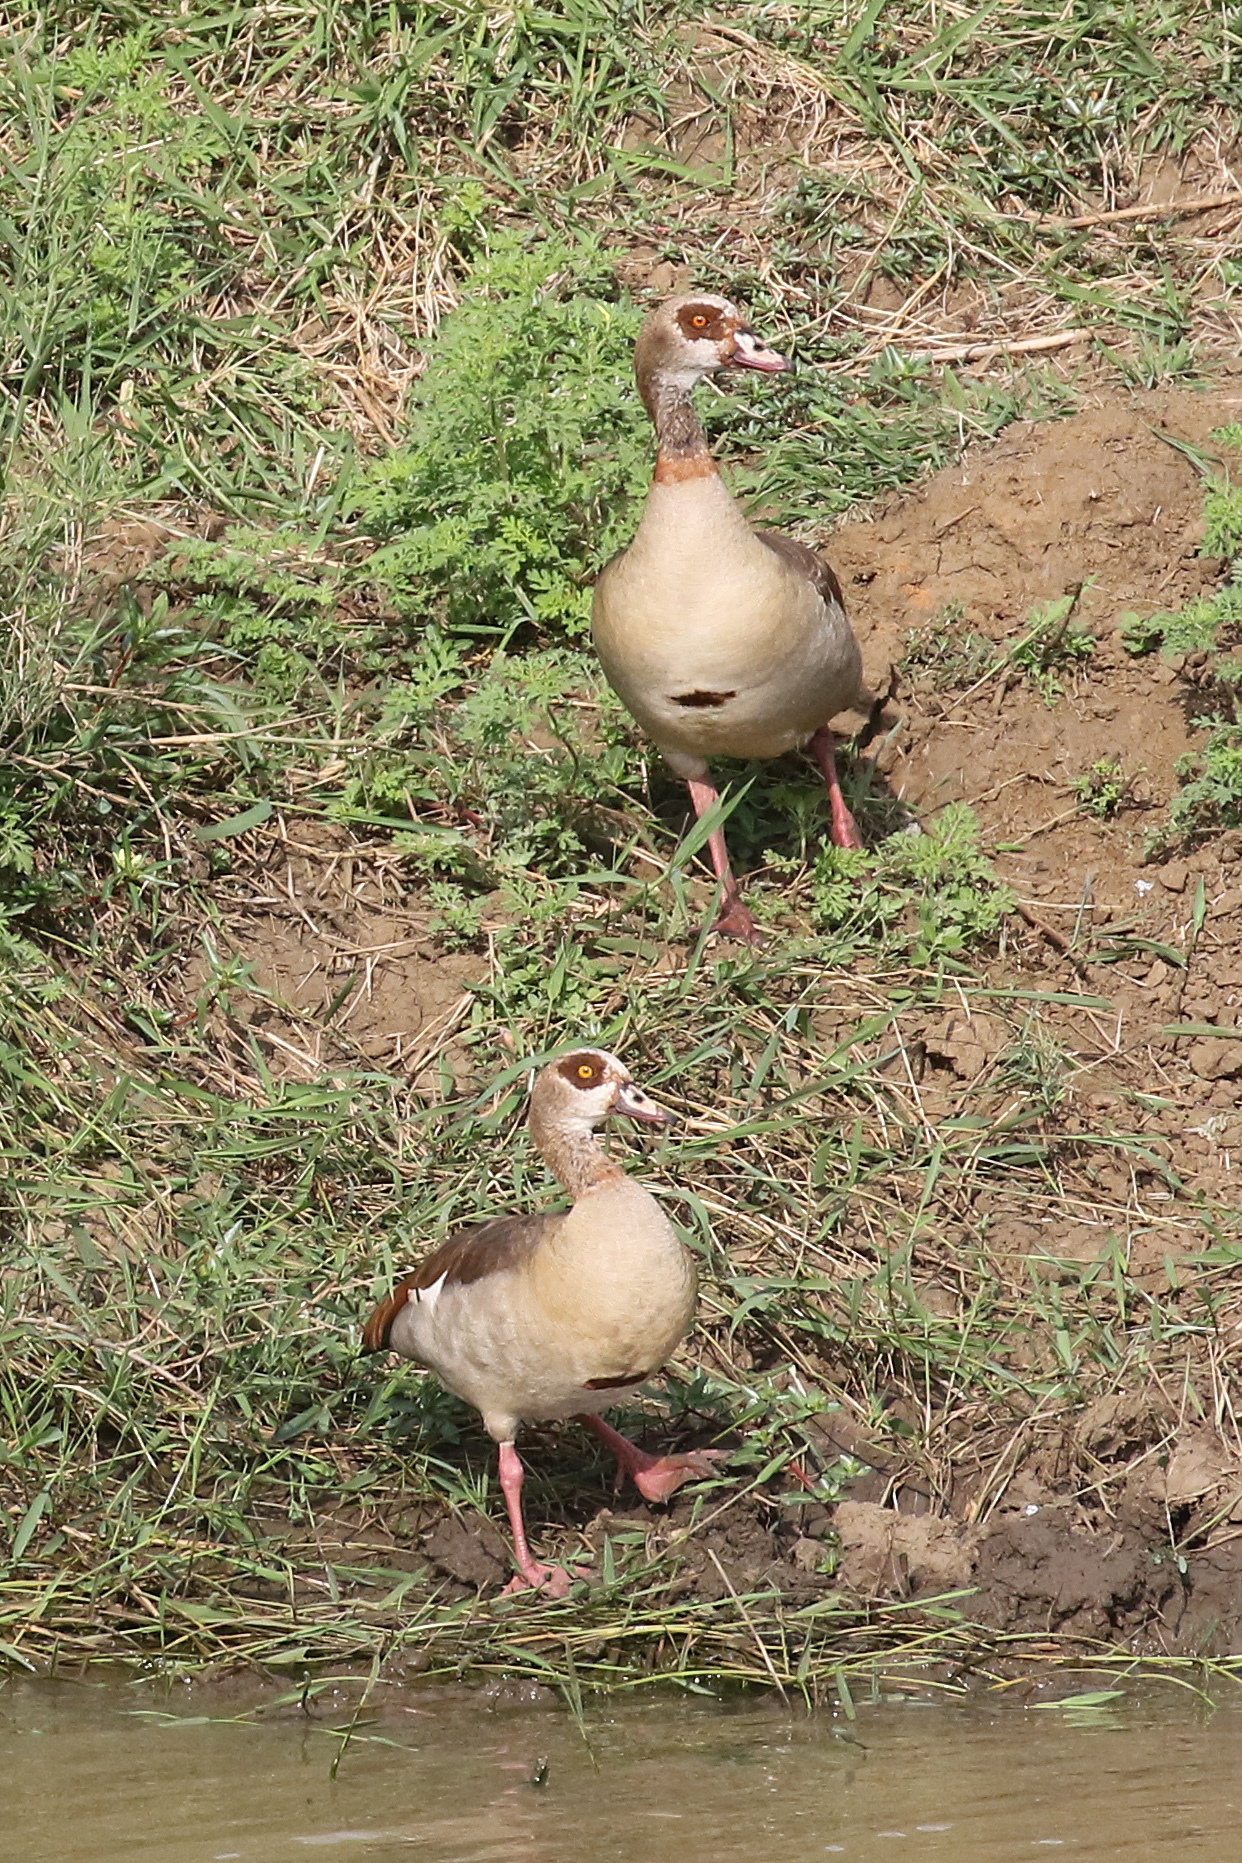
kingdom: Animalia
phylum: Chordata
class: Aves
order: Anseriformes
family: Anatidae
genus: Alopochen
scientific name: Alopochen aegyptiaca
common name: Egyptian goose
